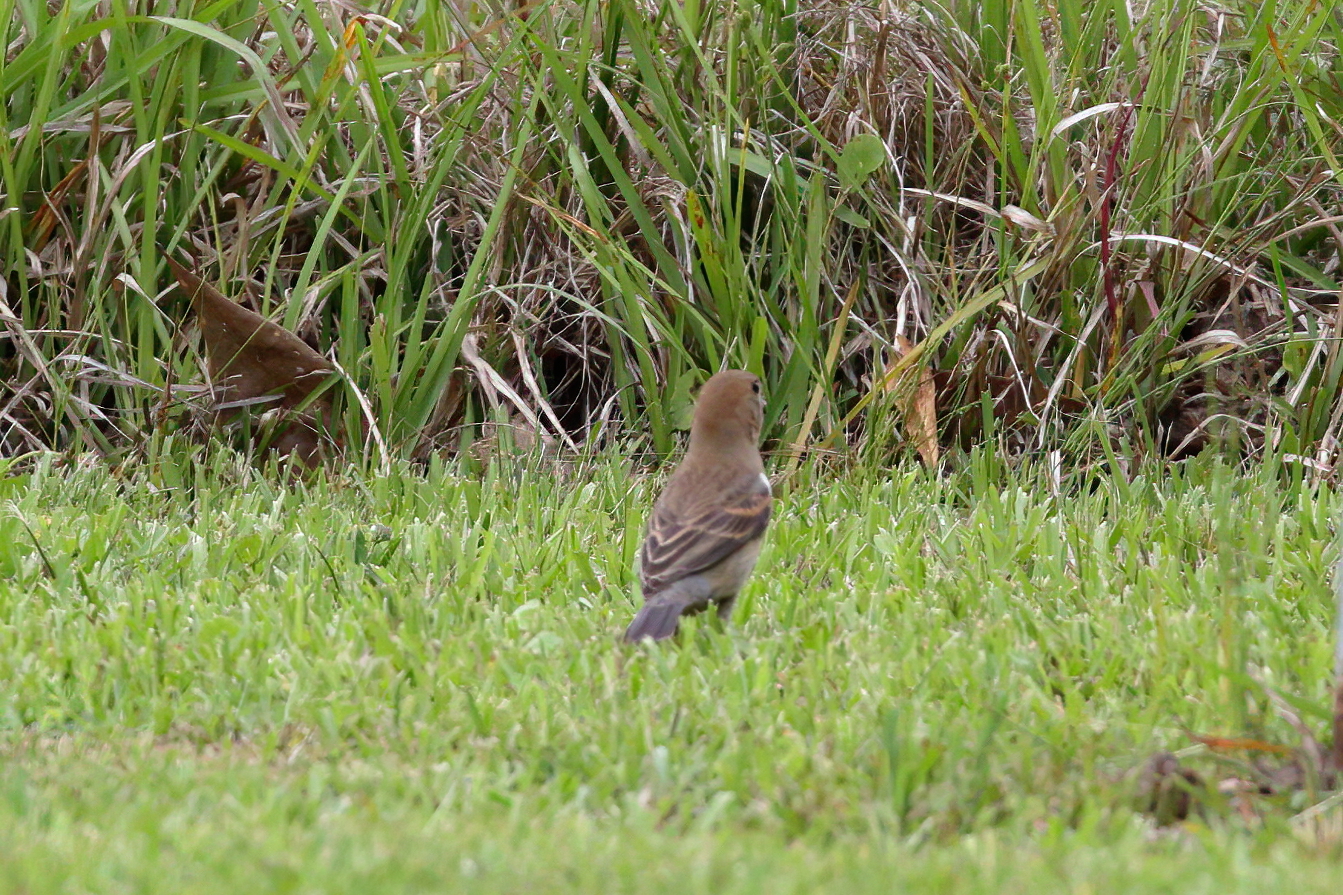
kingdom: Animalia
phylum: Chordata
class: Aves
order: Passeriformes
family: Cardinalidae
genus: Passerina
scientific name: Passerina caerulea
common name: Blue grosbeak
